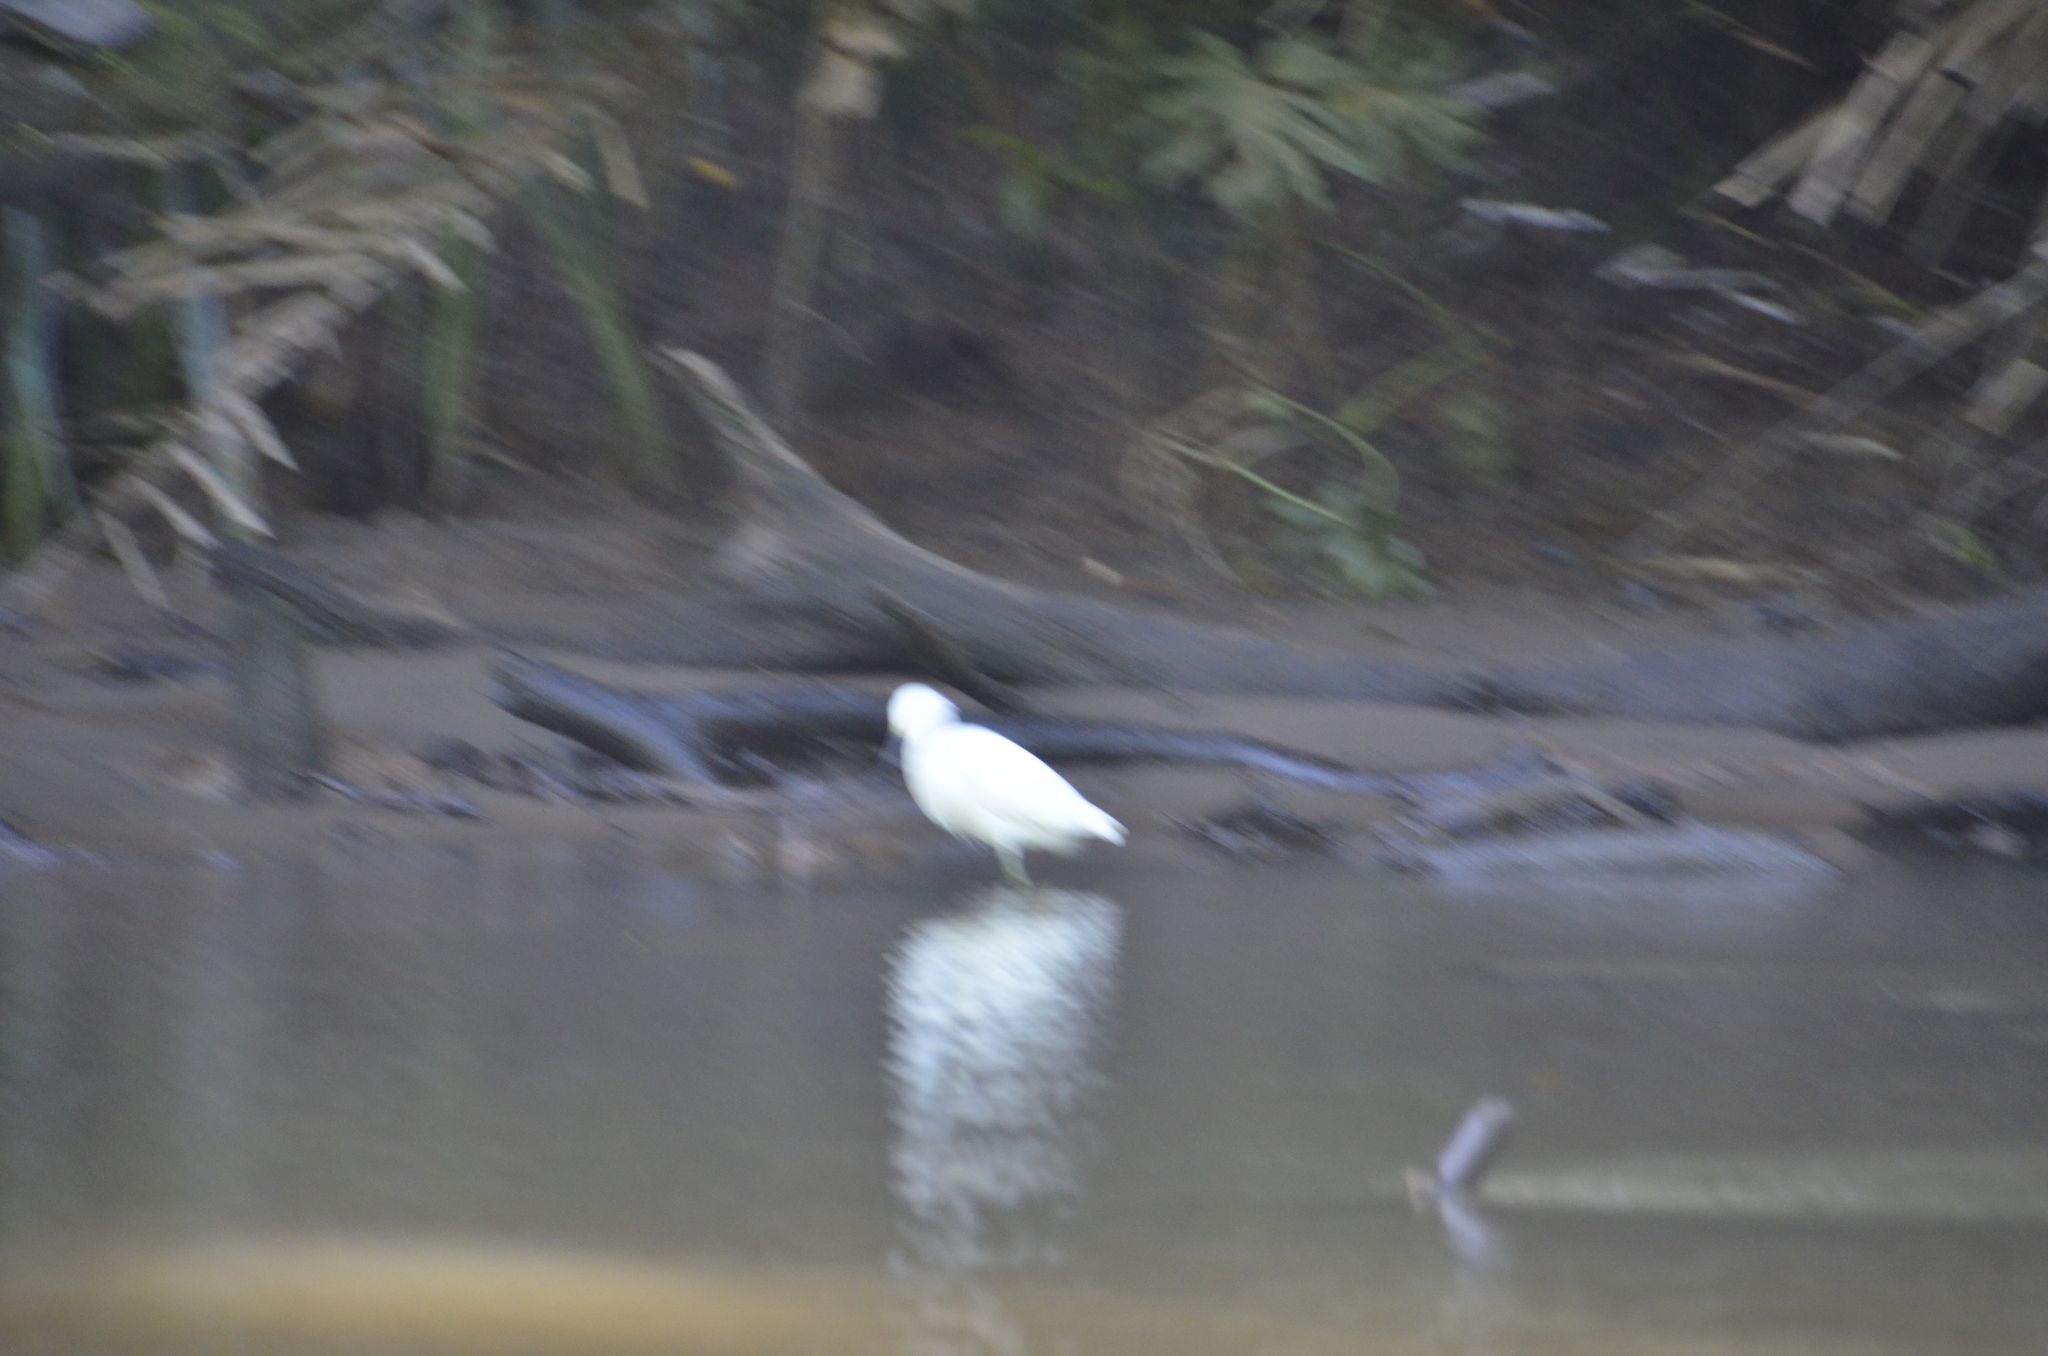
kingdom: Animalia
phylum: Chordata
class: Aves
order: Pelecaniformes
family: Ardeidae
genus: Egretta
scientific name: Egretta thula
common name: Snowy egret
